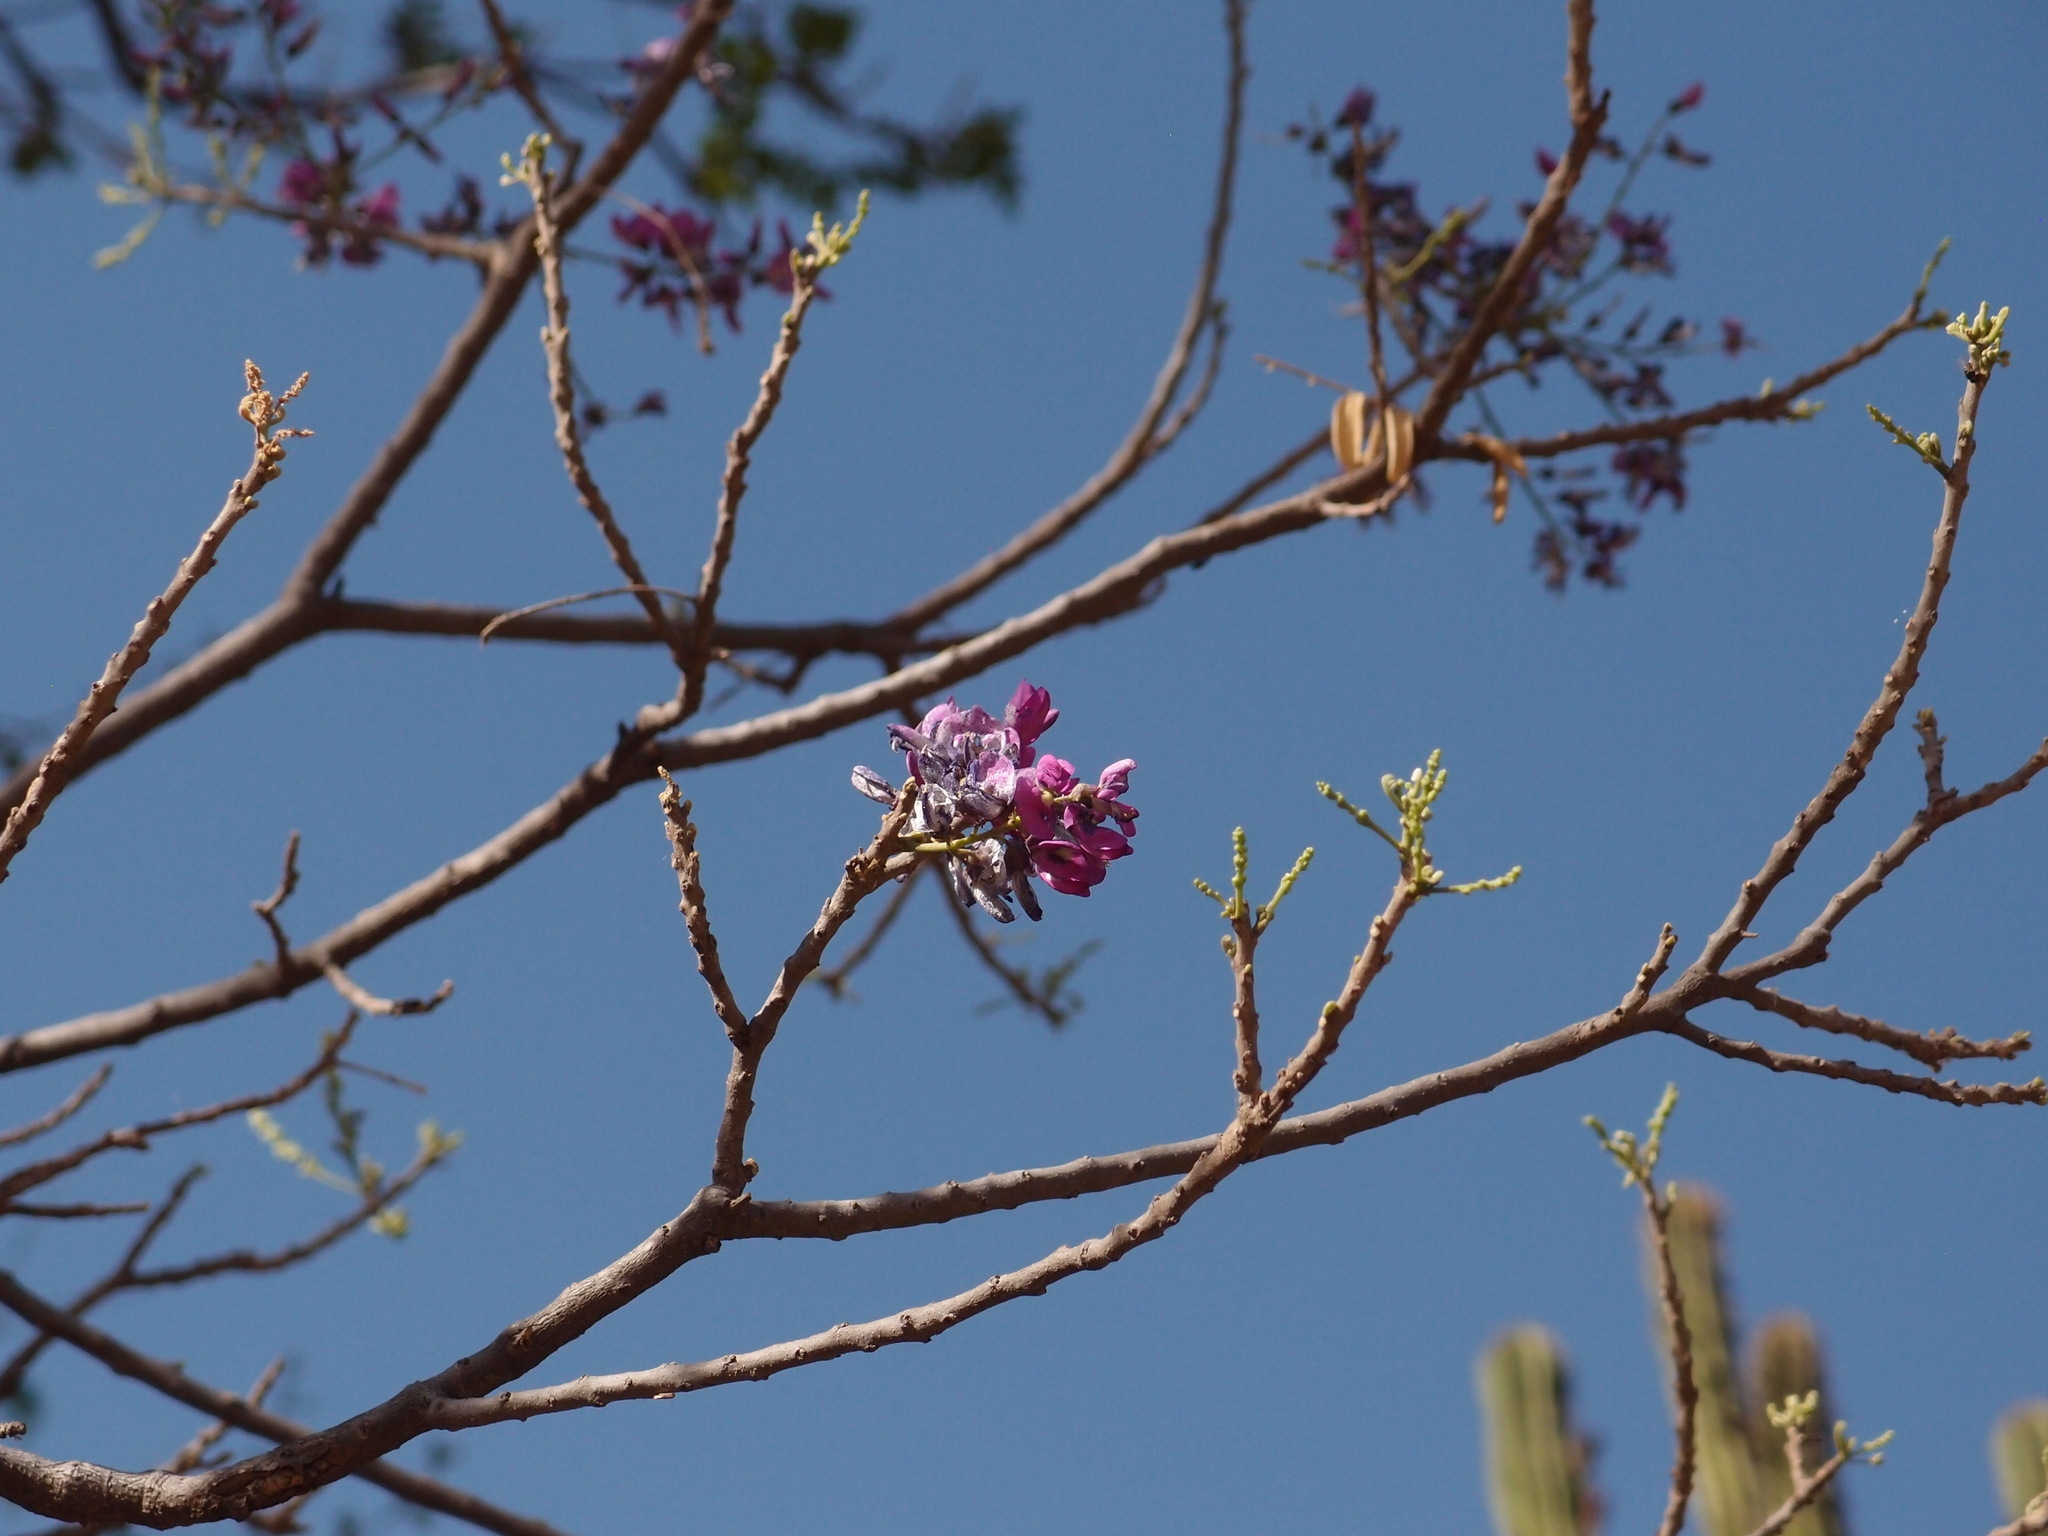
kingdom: Plantae
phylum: Tracheophyta
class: Magnoliopsida
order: Fabales
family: Fabaceae
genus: Lonchocarpus
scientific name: Lonchocarpus hermannii
